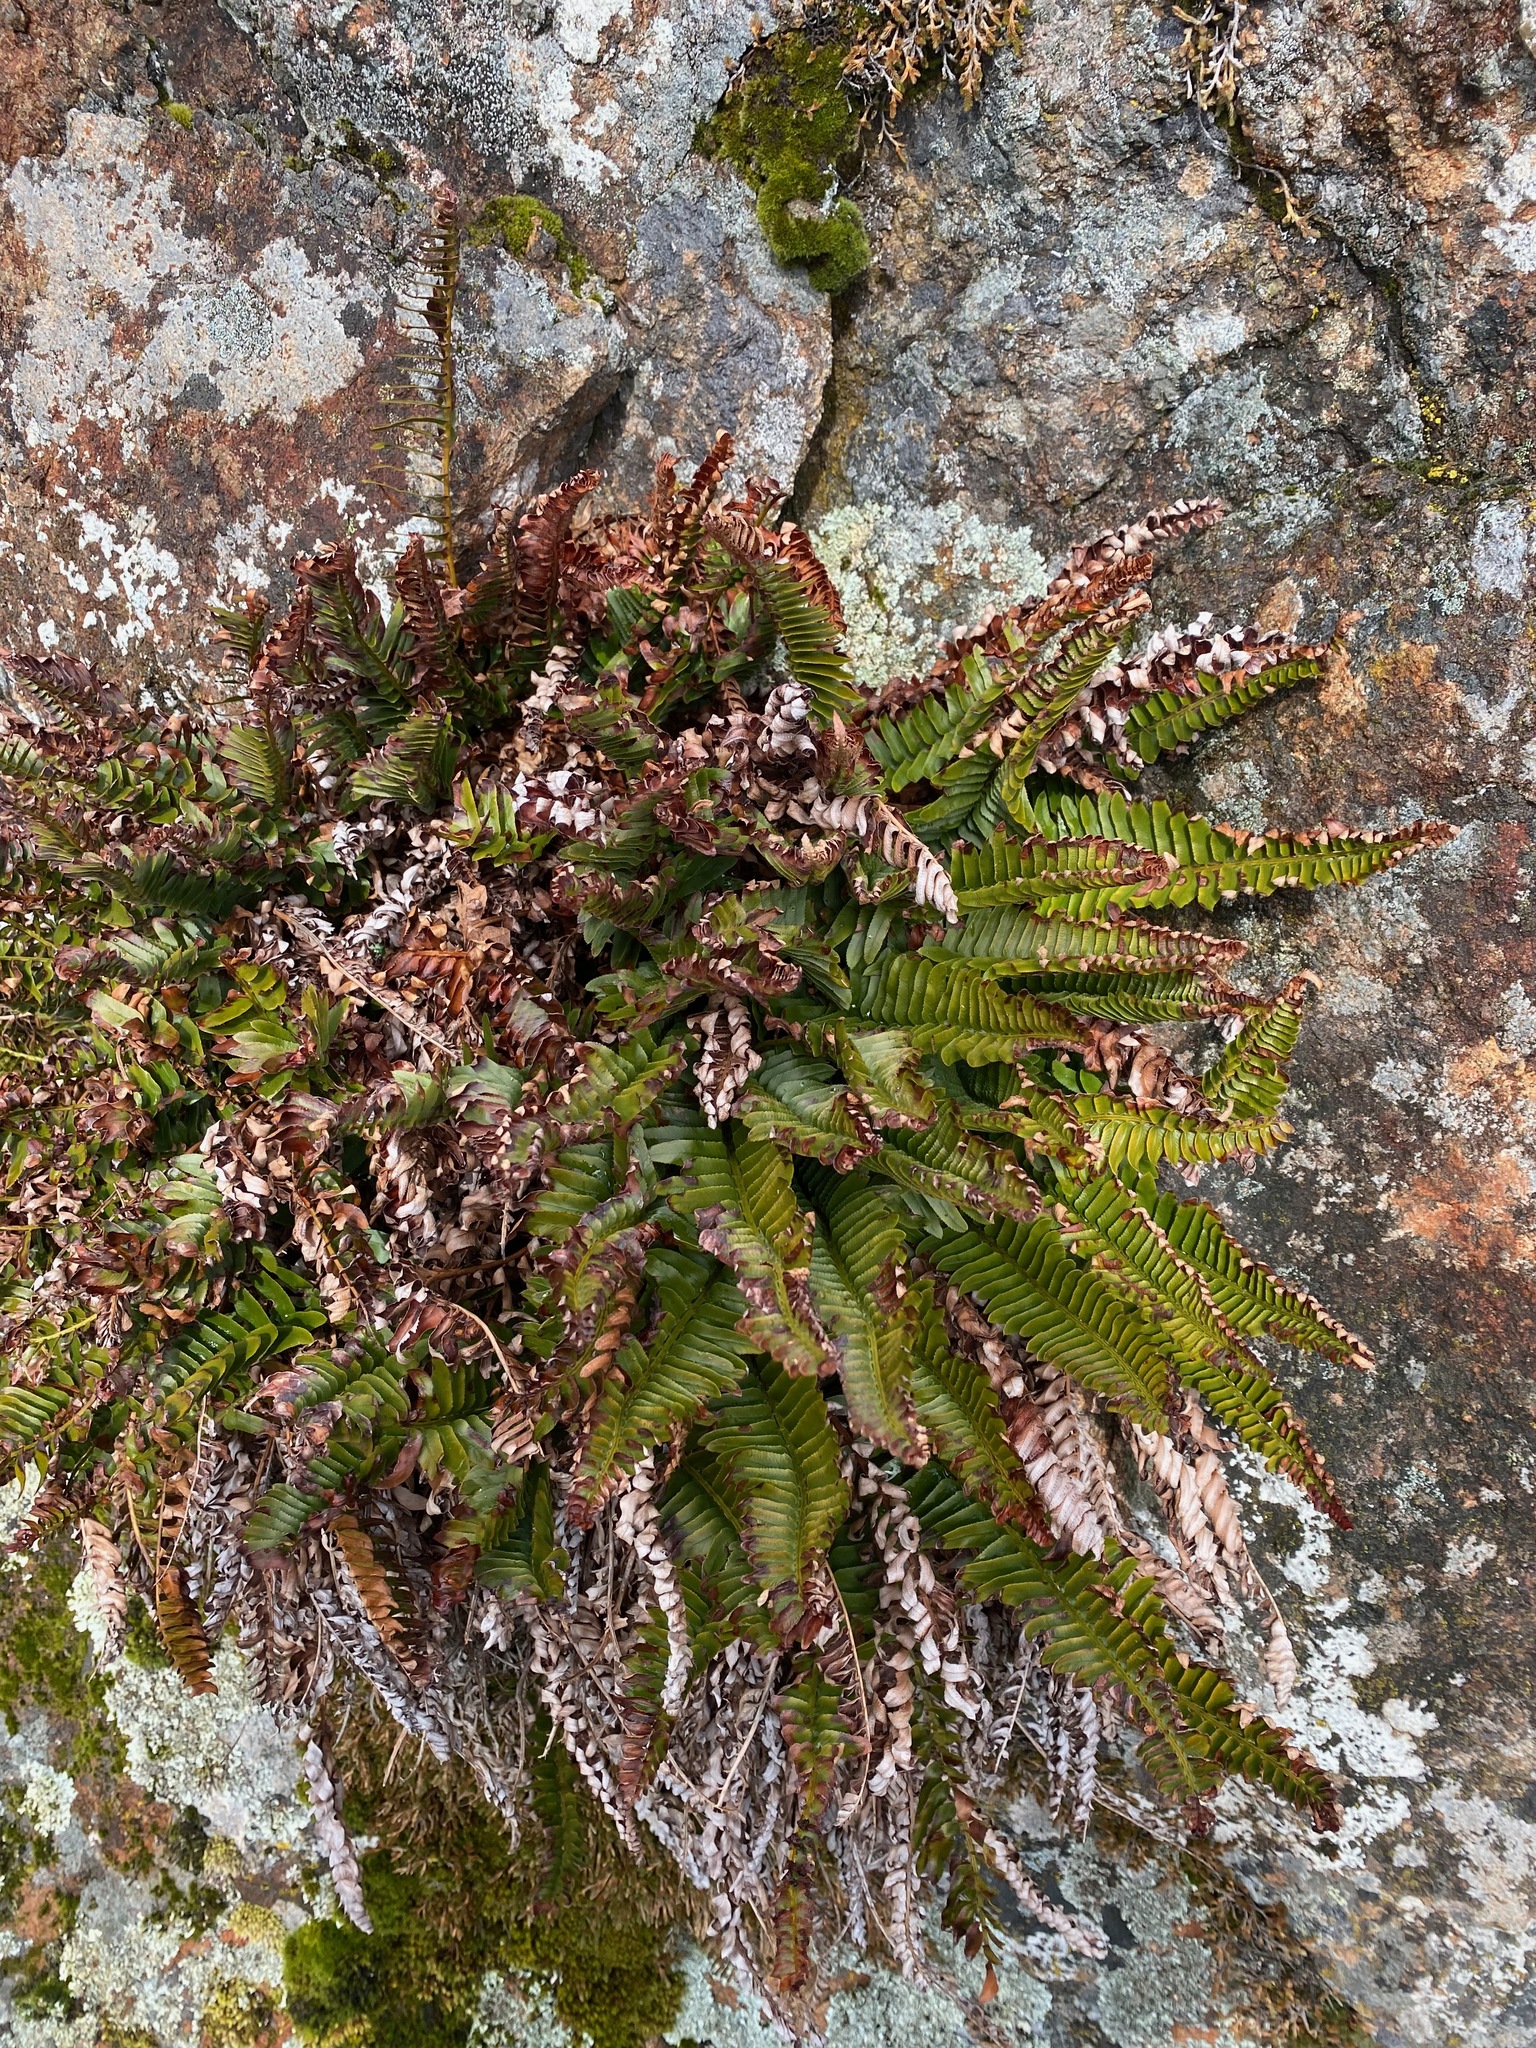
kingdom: Plantae
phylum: Tracheophyta
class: Polypodiopsida
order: Polypodiales
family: Dryopteridaceae
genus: Polystichum
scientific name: Polystichum imbricans
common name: Dwarf western sword fern
